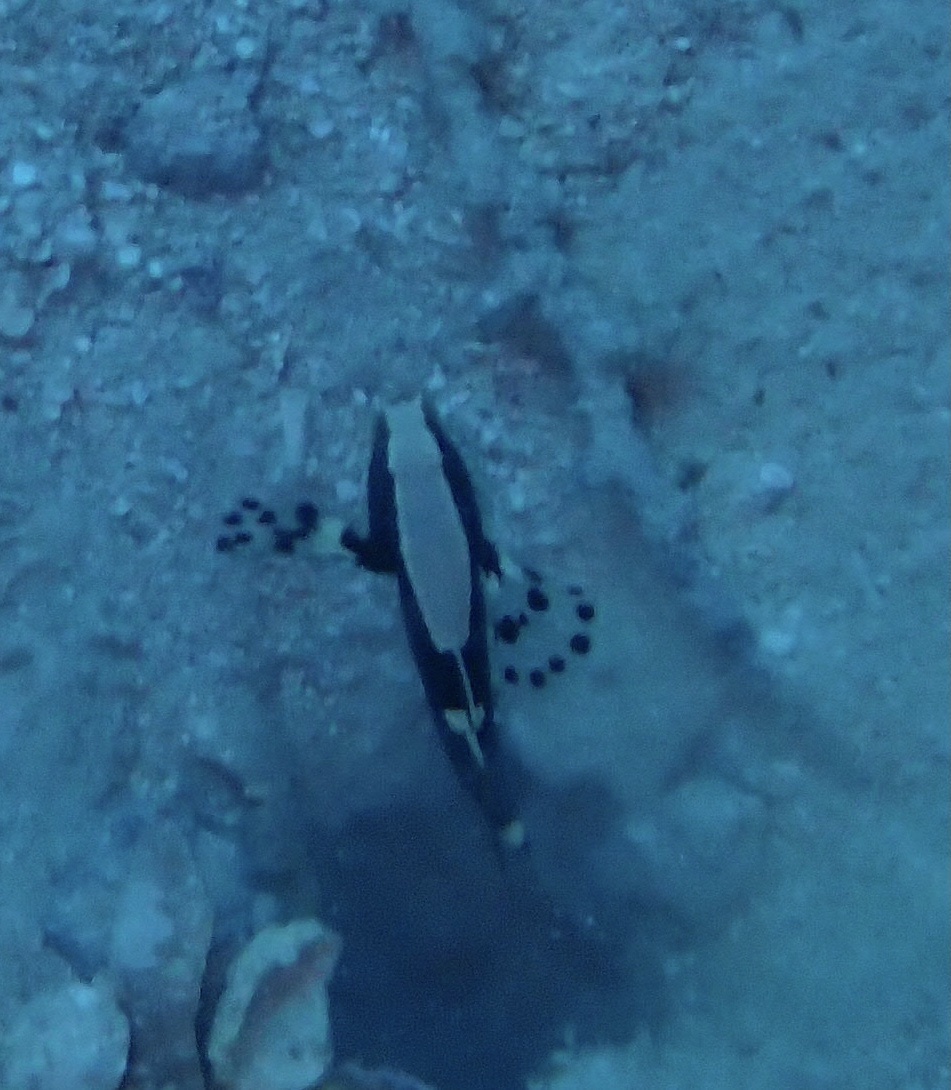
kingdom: Animalia
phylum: Chordata
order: Perciformes
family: Gobiidae
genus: Lotilia
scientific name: Lotilia graciliosa
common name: Whitecap goby
